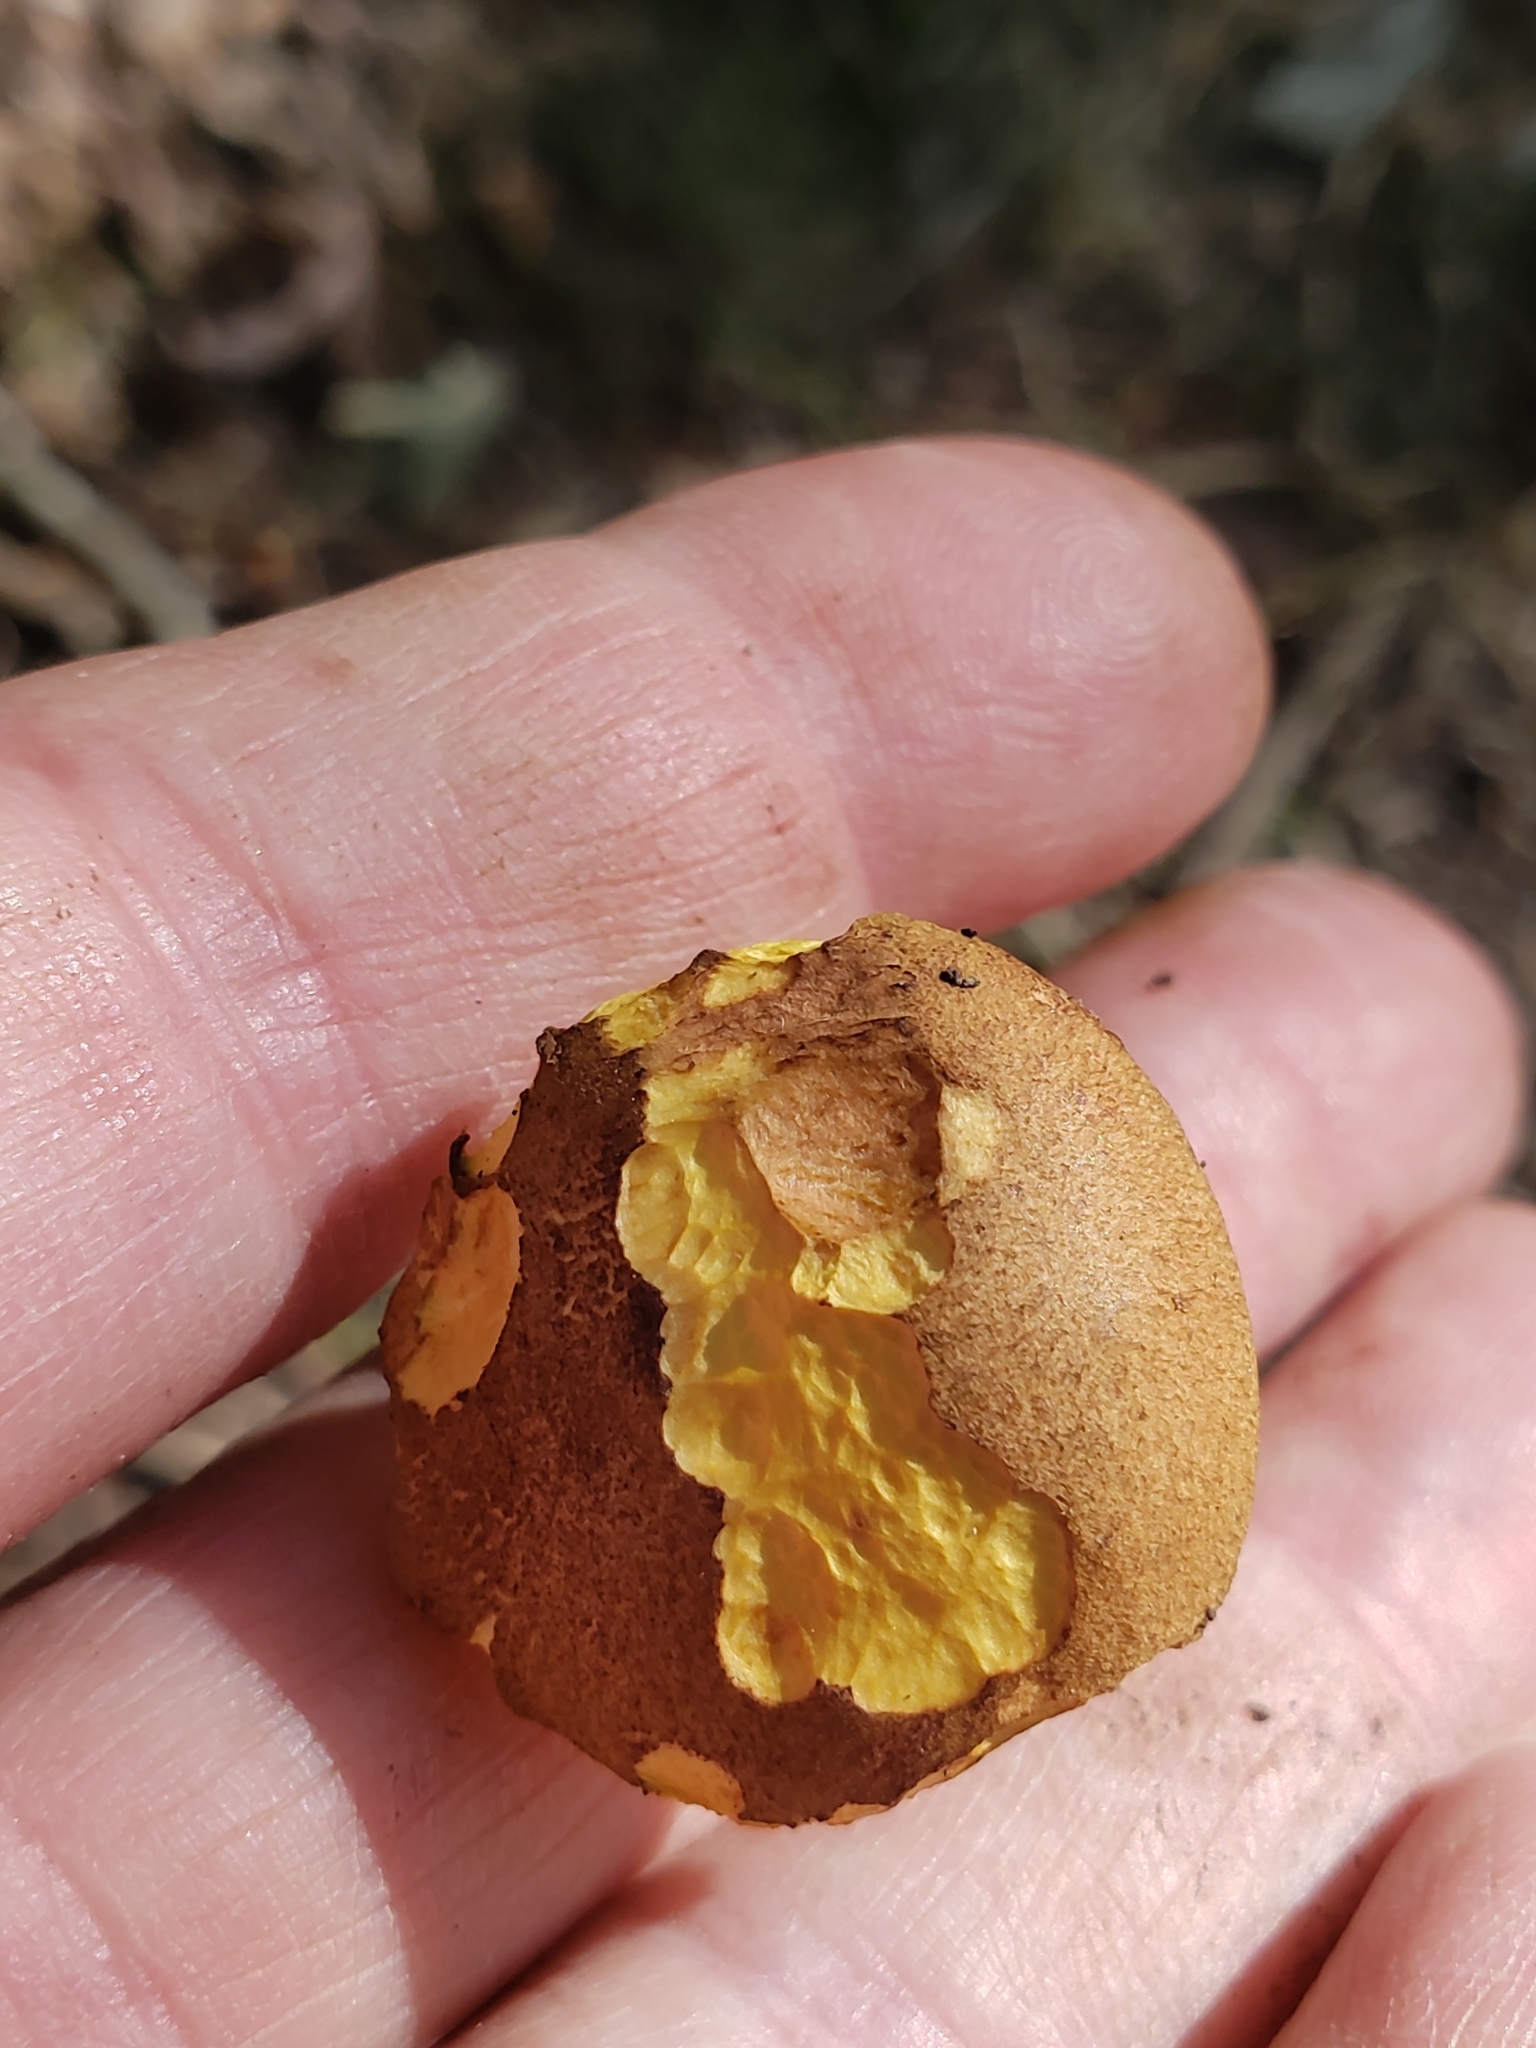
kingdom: Fungi
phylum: Basidiomycota
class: Agaricomycetes
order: Boletales
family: Boletaceae
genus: Aureoboletus
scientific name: Aureoboletus innixus
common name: Clustered brown bolete
